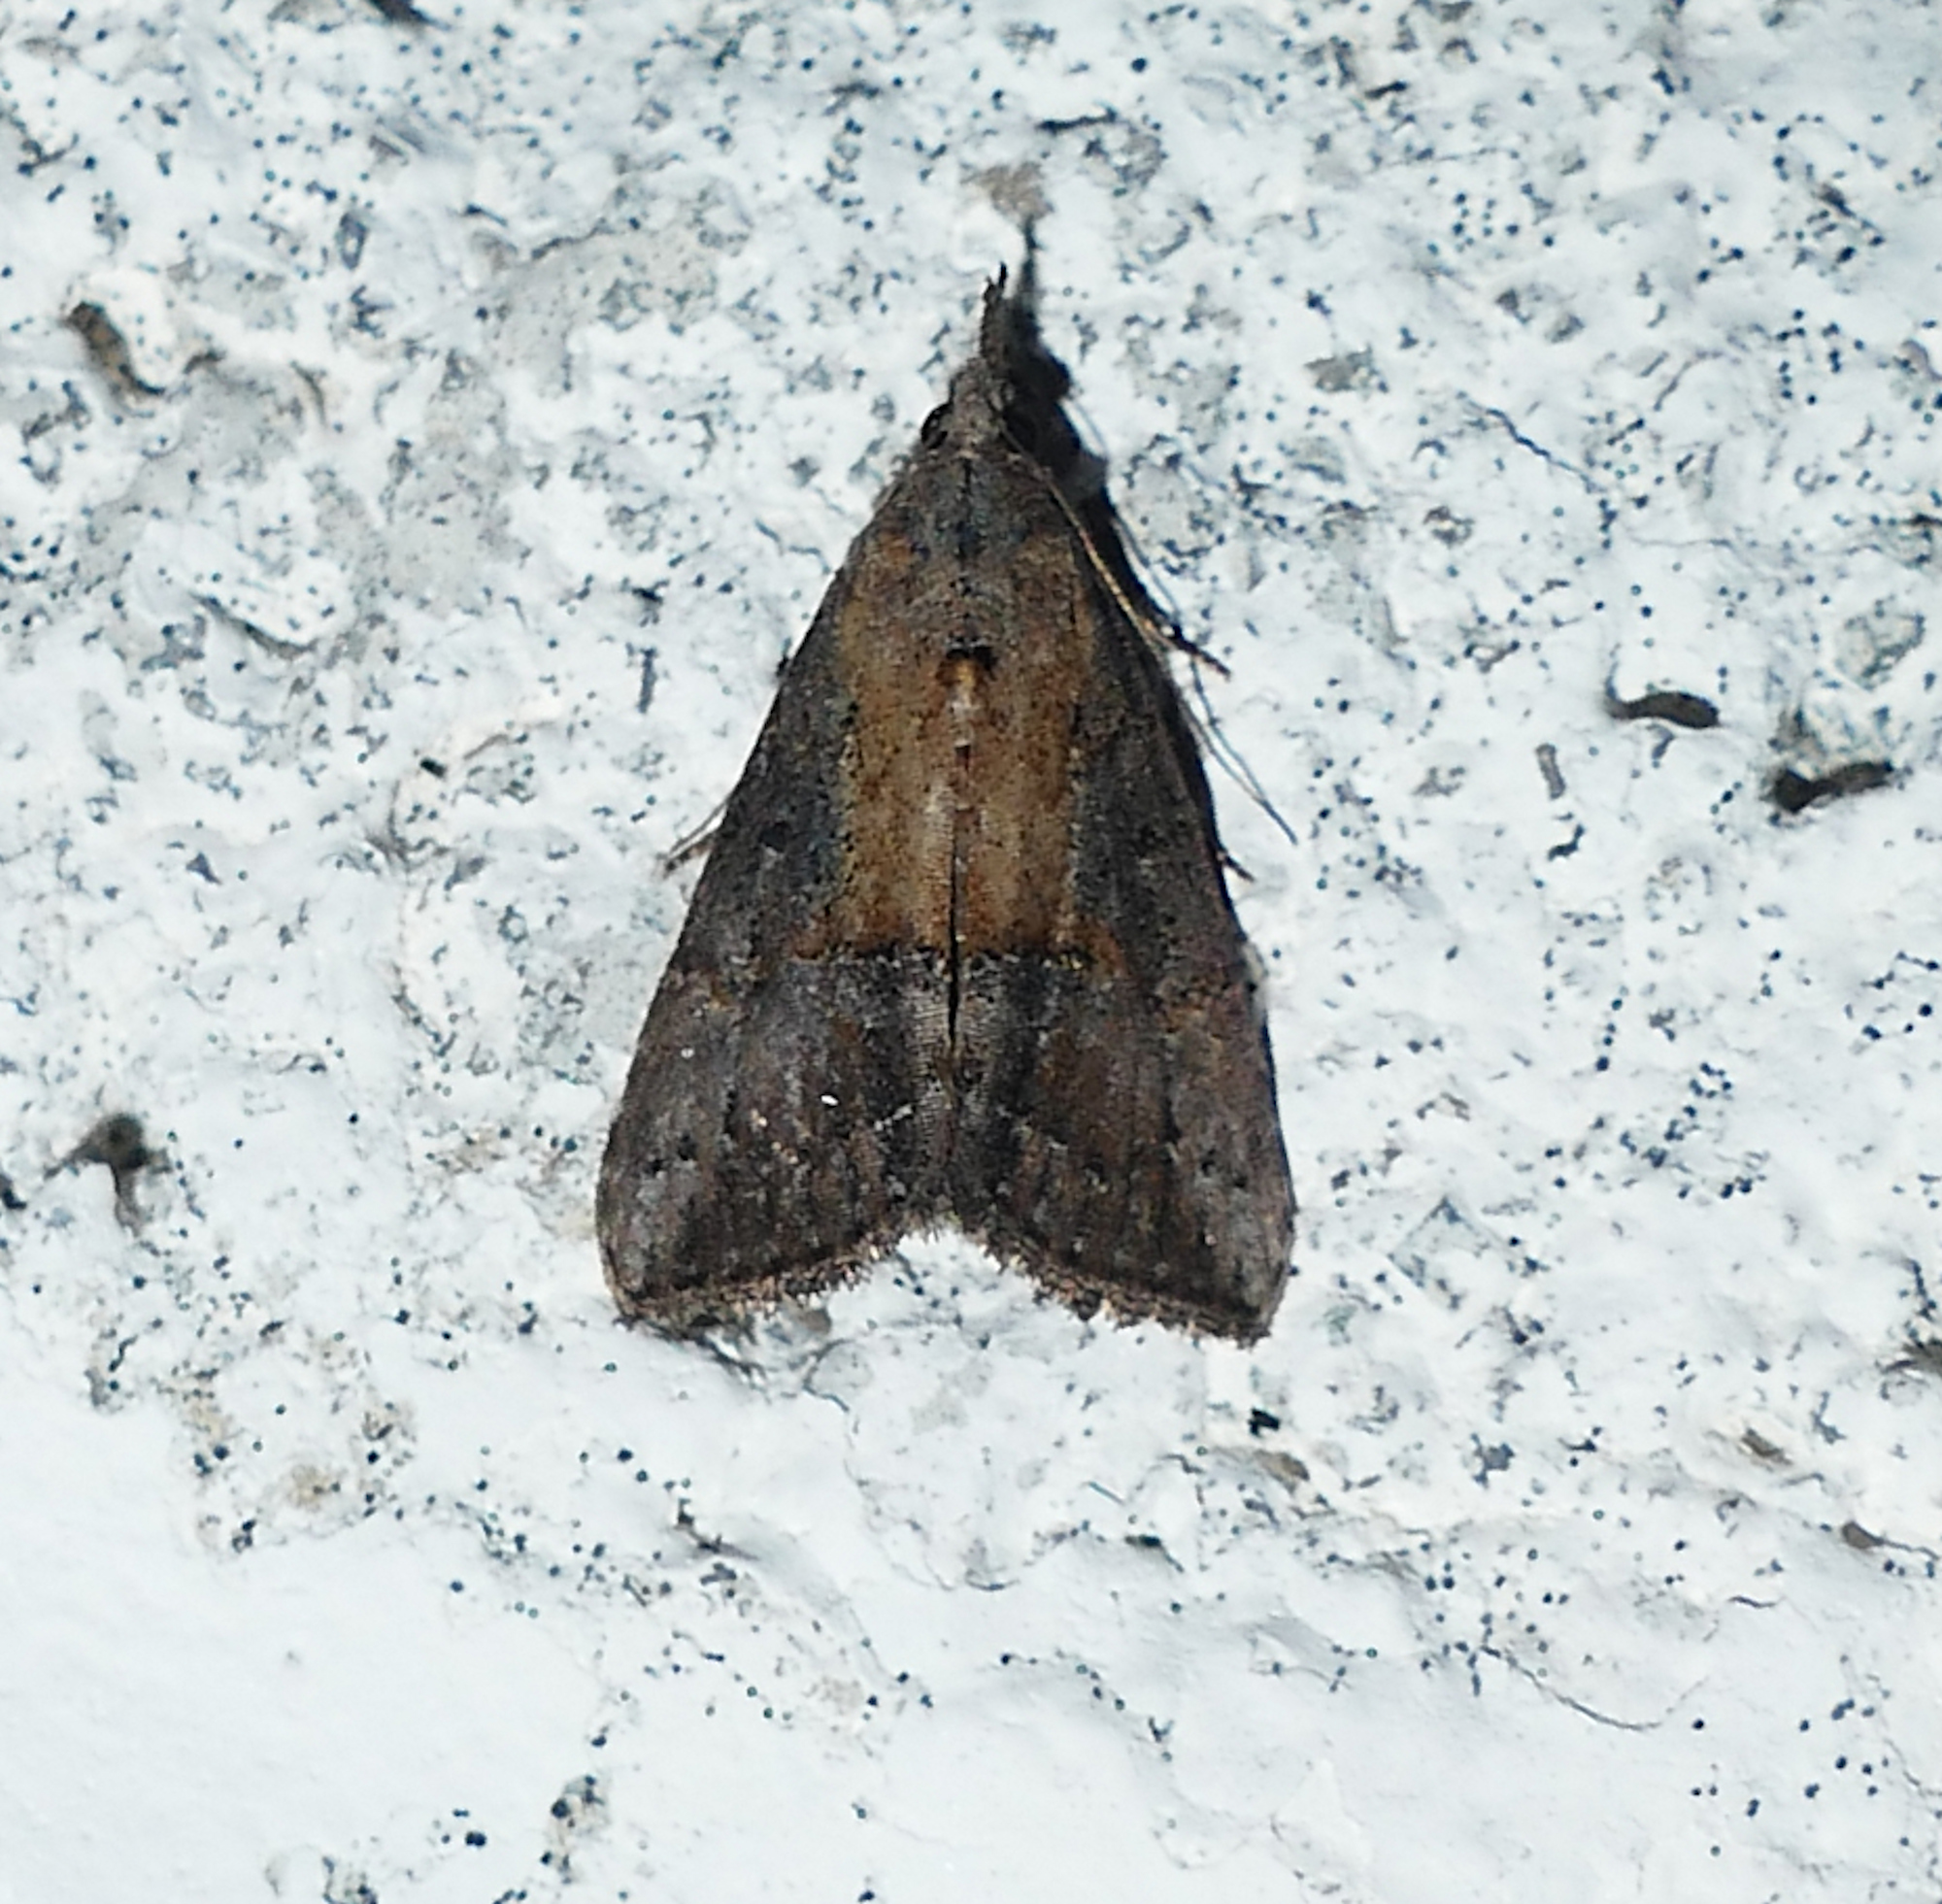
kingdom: Animalia
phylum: Arthropoda
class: Insecta
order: Lepidoptera
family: Erebidae
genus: Hypena
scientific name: Hypena scabra
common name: Green cloverworm
